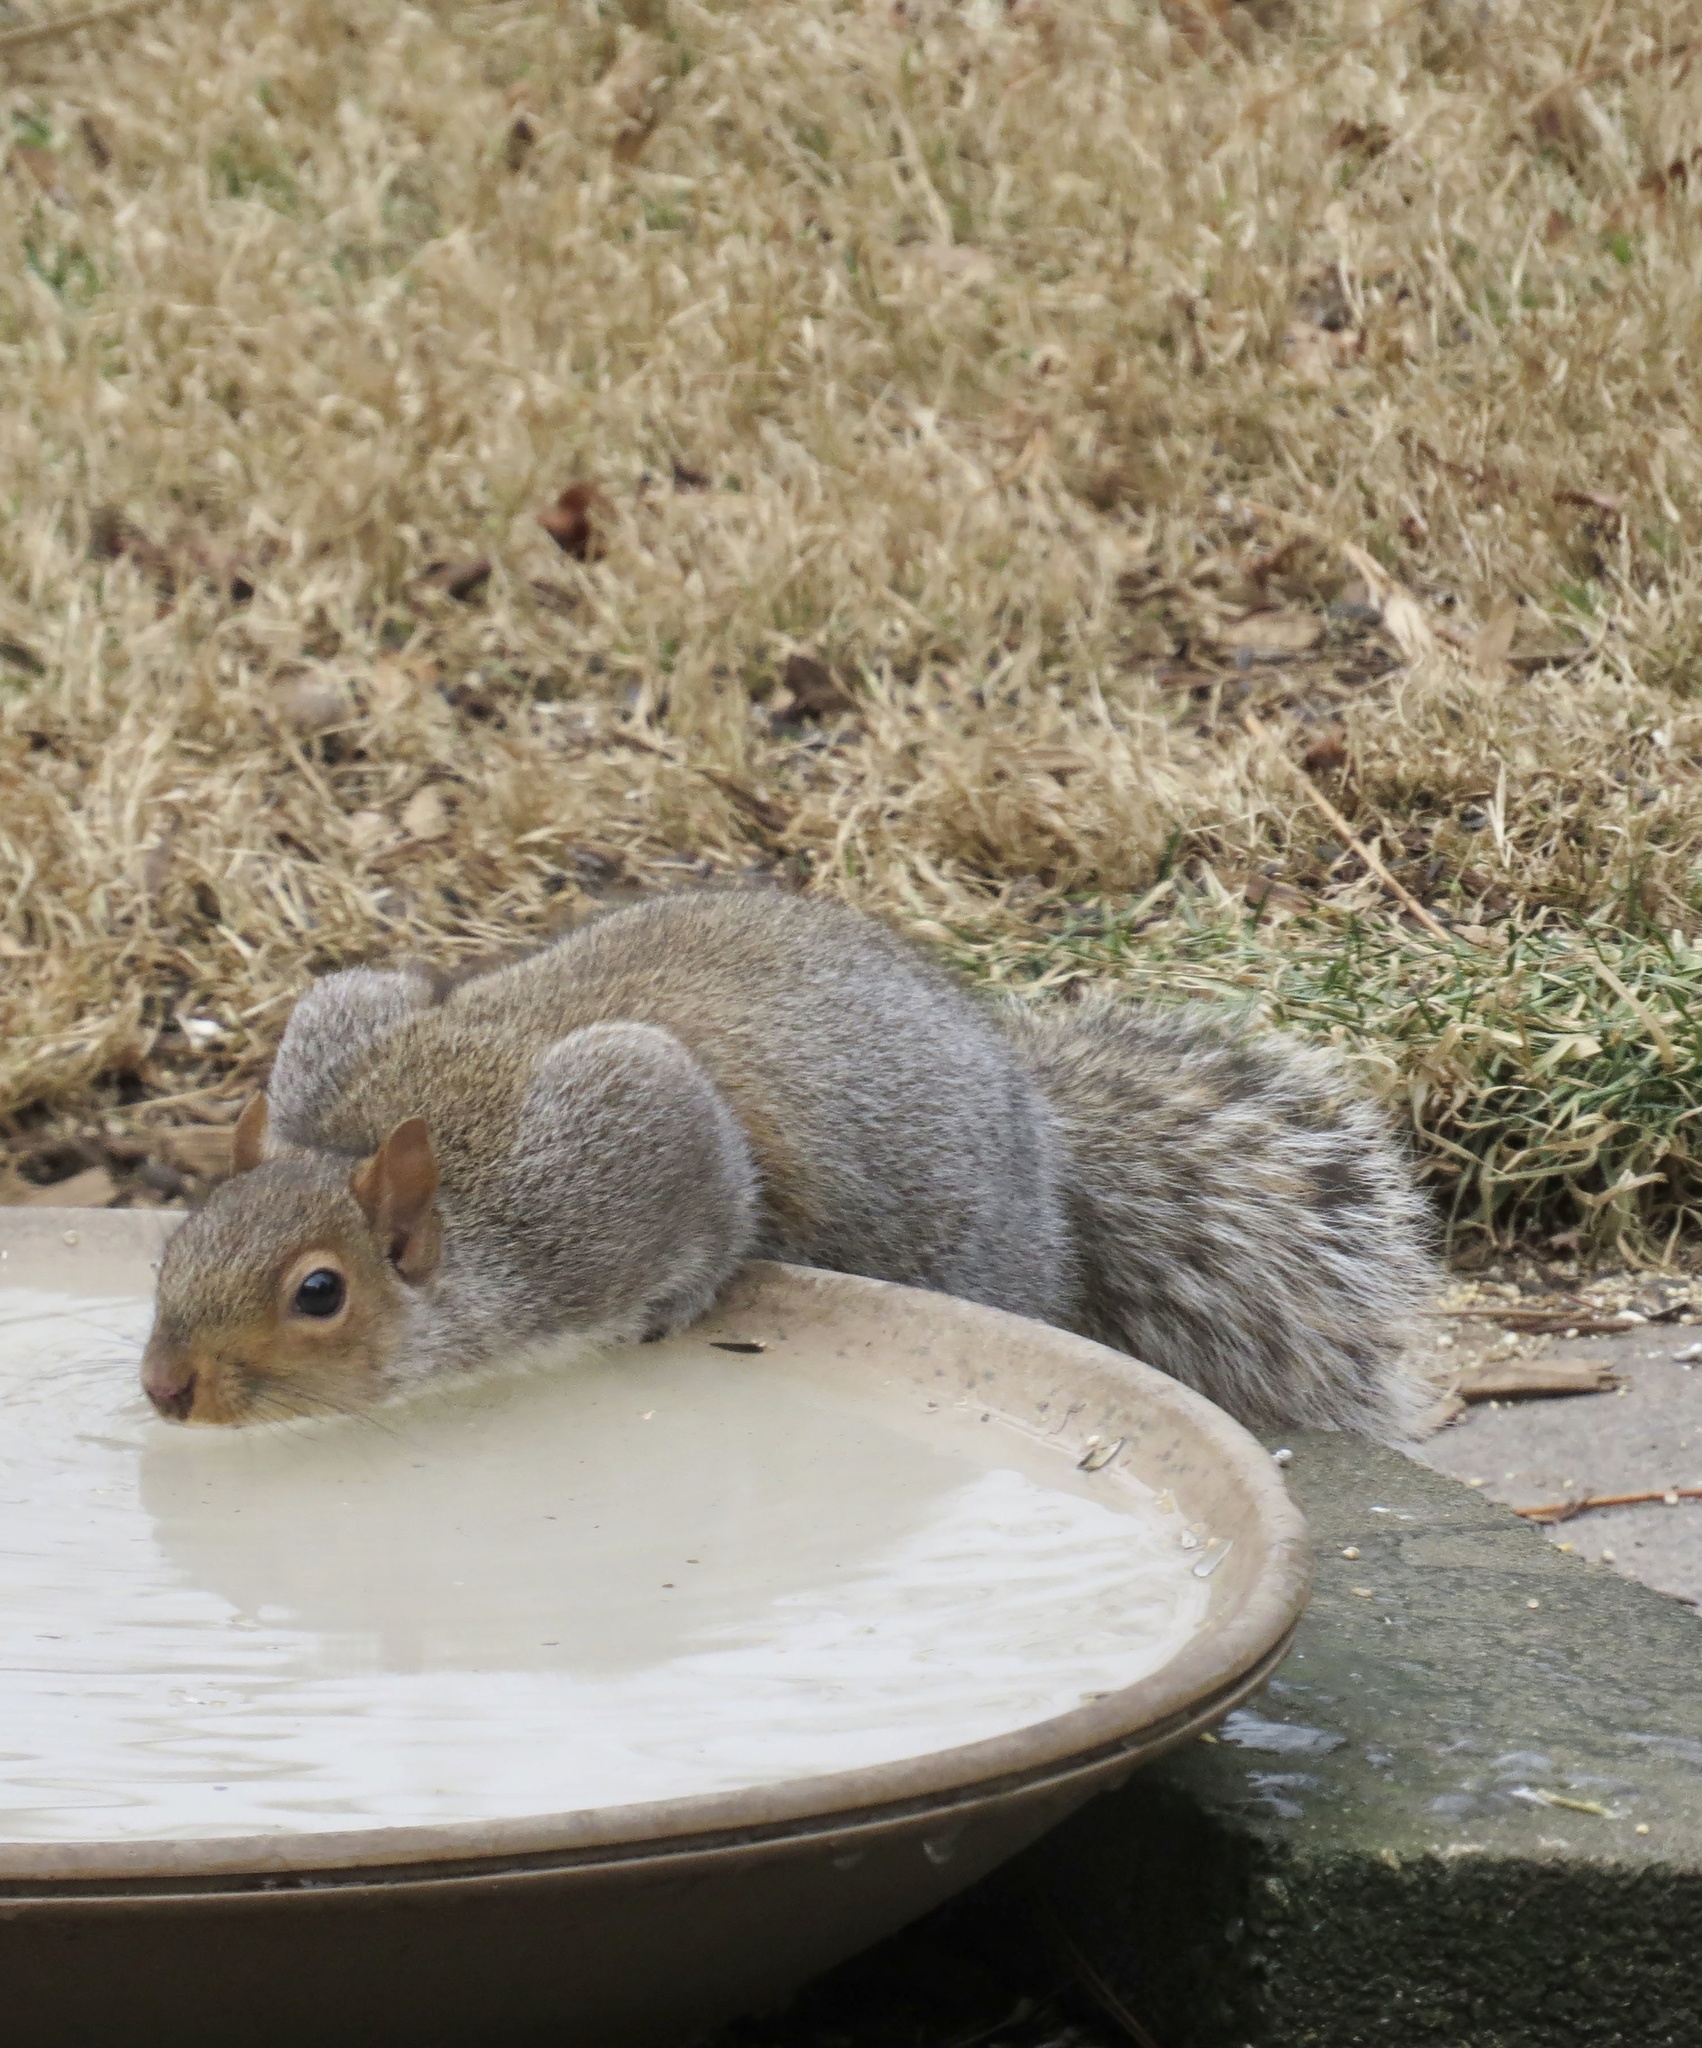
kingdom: Animalia
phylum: Chordata
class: Mammalia
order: Rodentia
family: Sciuridae
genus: Sciurus
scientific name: Sciurus carolinensis
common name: Eastern gray squirrel
